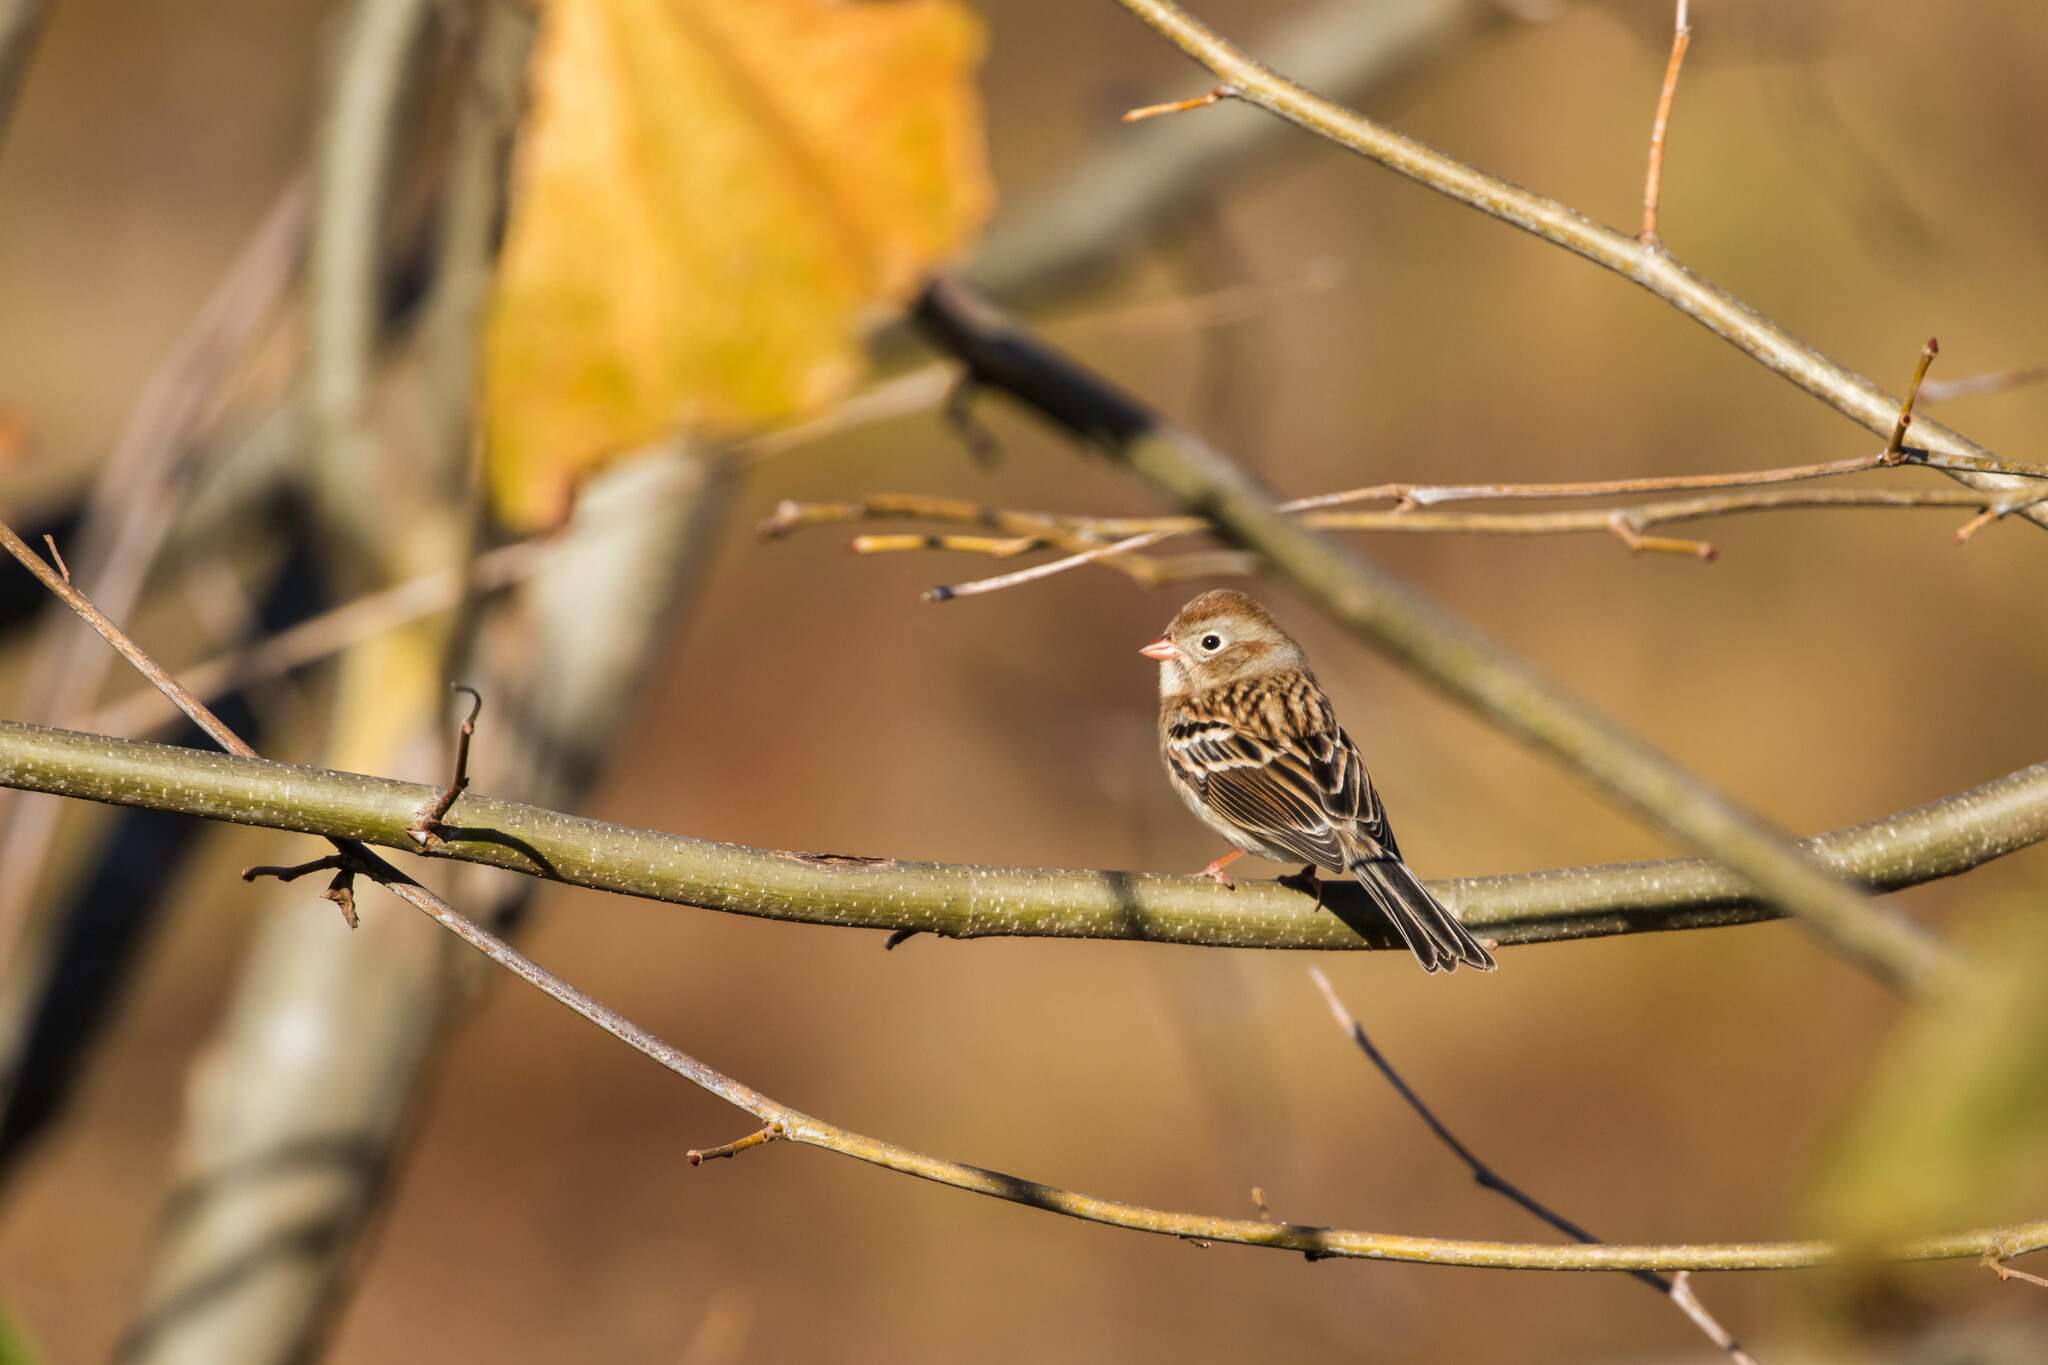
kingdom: Animalia
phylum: Chordata
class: Aves
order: Passeriformes
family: Passerellidae
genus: Spizella
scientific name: Spizella pusilla
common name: Field sparrow
